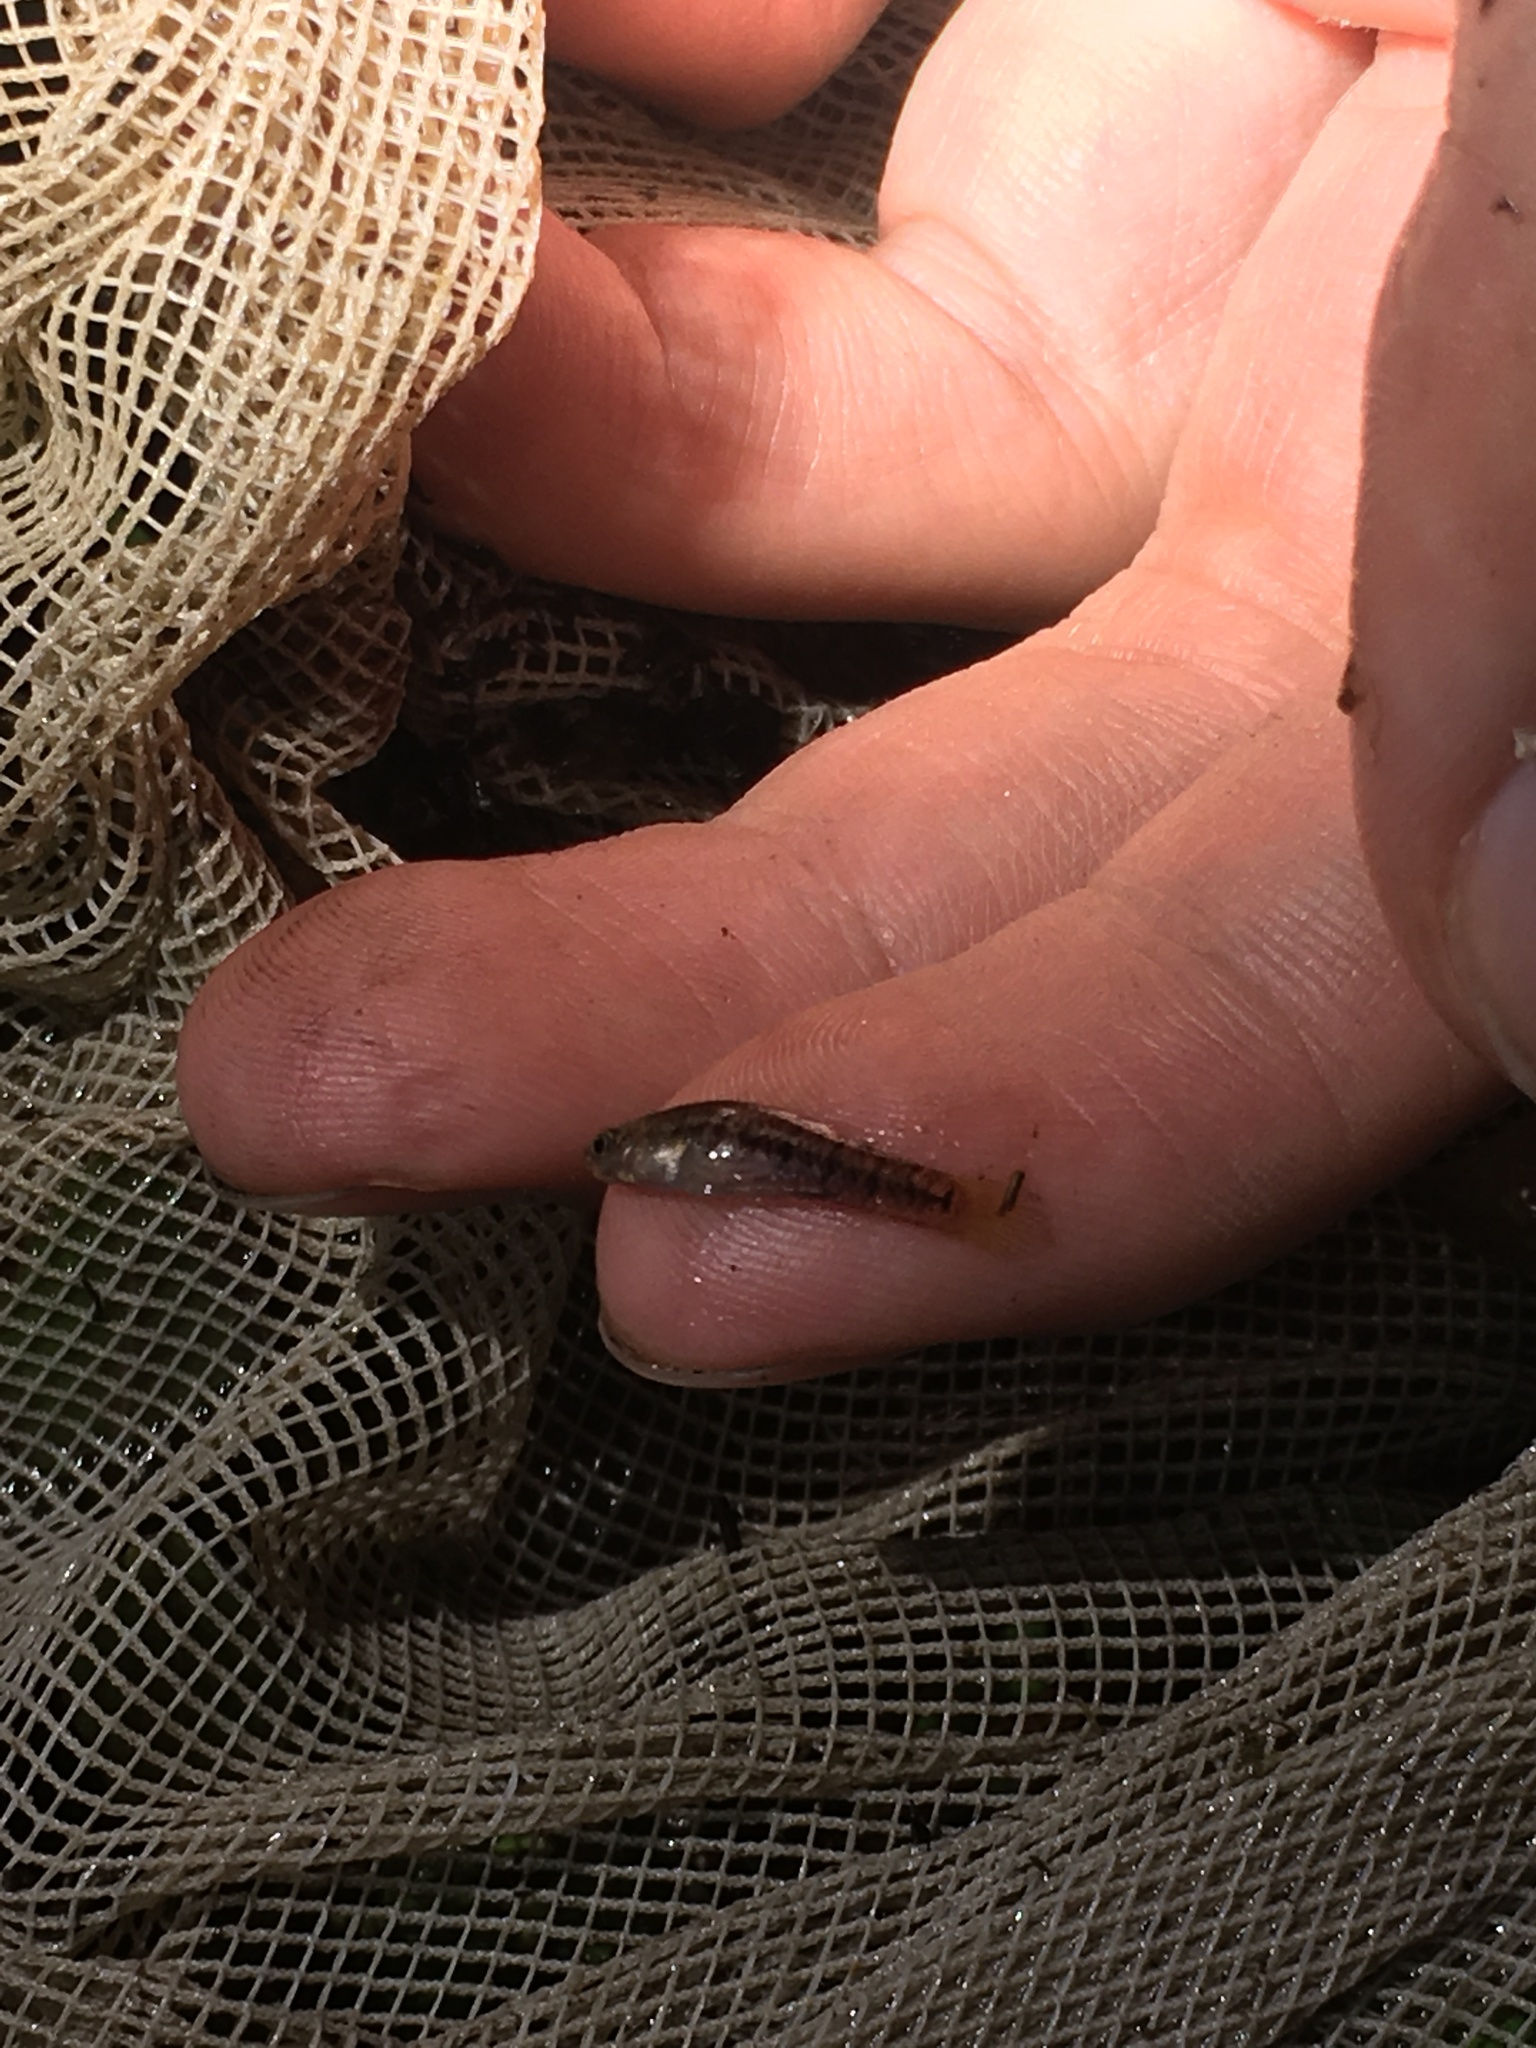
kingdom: Animalia
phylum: Chordata
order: Cyprinodontiformes
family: Poeciliidae
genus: Heterandria
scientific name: Heterandria formosa
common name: Least killifish
